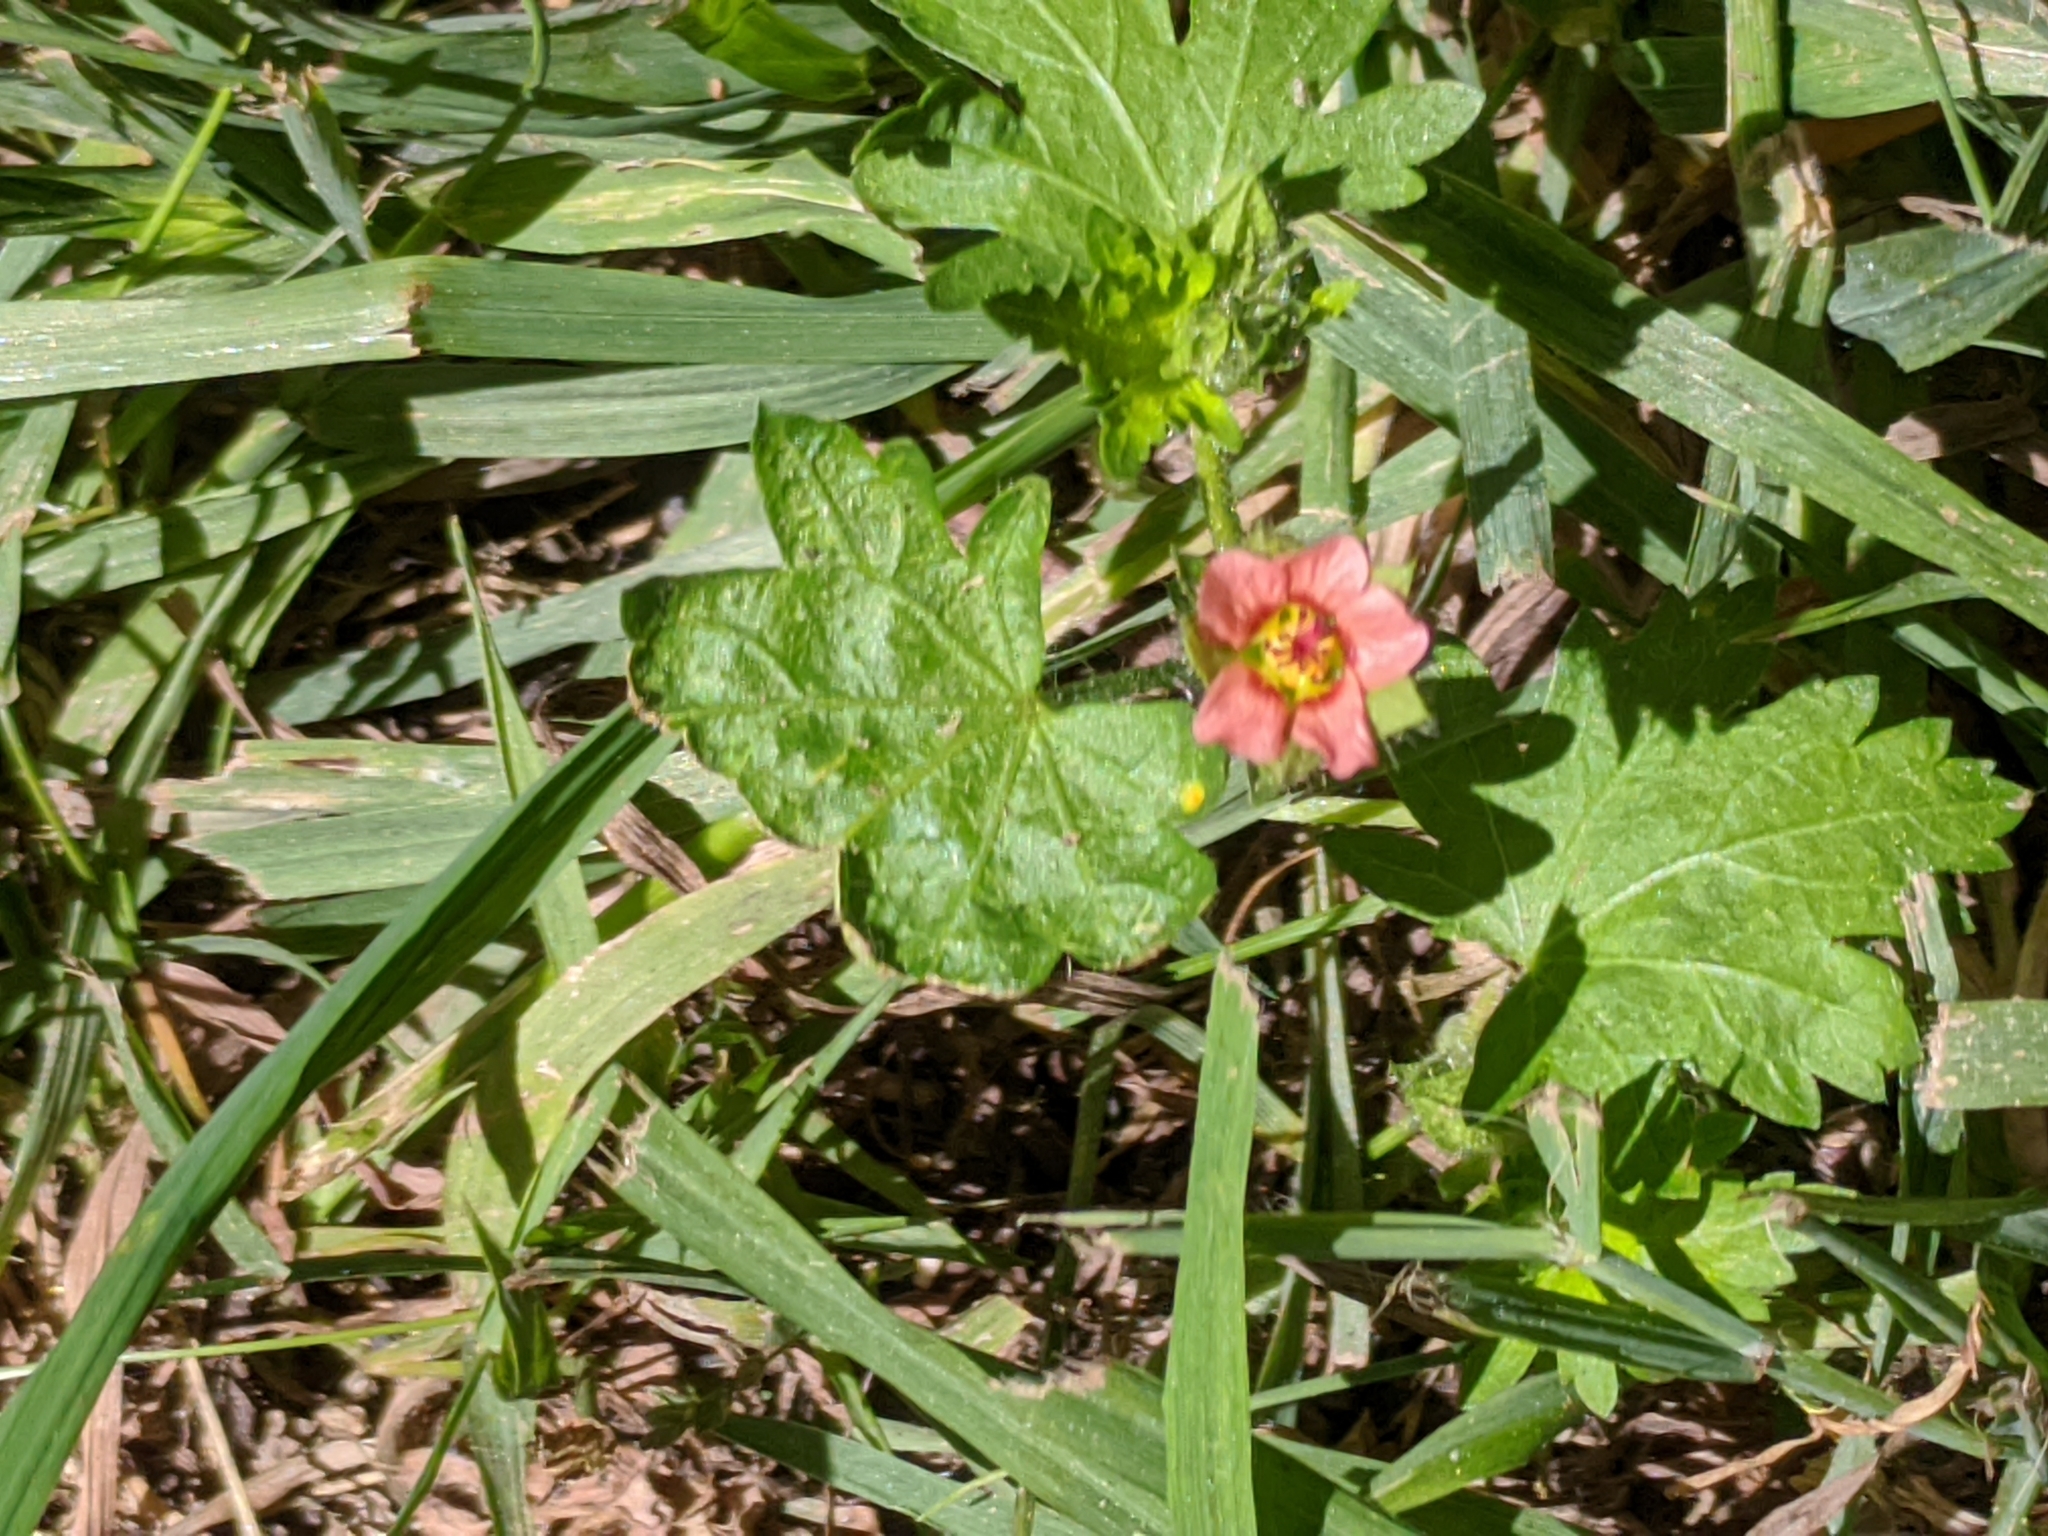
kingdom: Plantae
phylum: Tracheophyta
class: Magnoliopsida
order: Malvales
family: Malvaceae
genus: Modiola
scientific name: Modiola caroliniana
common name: Carolina bristlemallow
